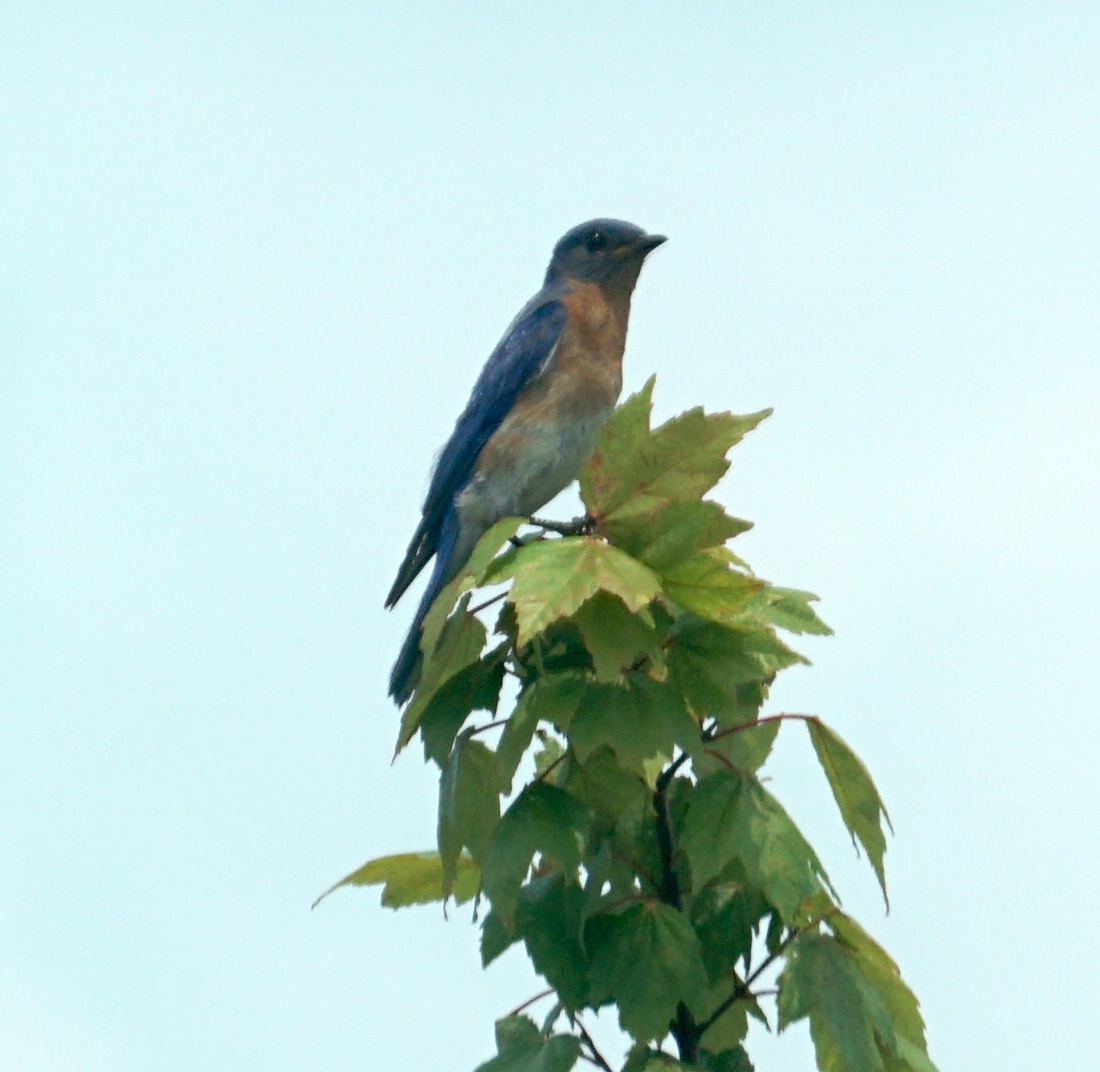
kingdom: Animalia
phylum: Chordata
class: Aves
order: Passeriformes
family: Turdidae
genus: Sialia
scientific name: Sialia sialis
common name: Eastern bluebird
